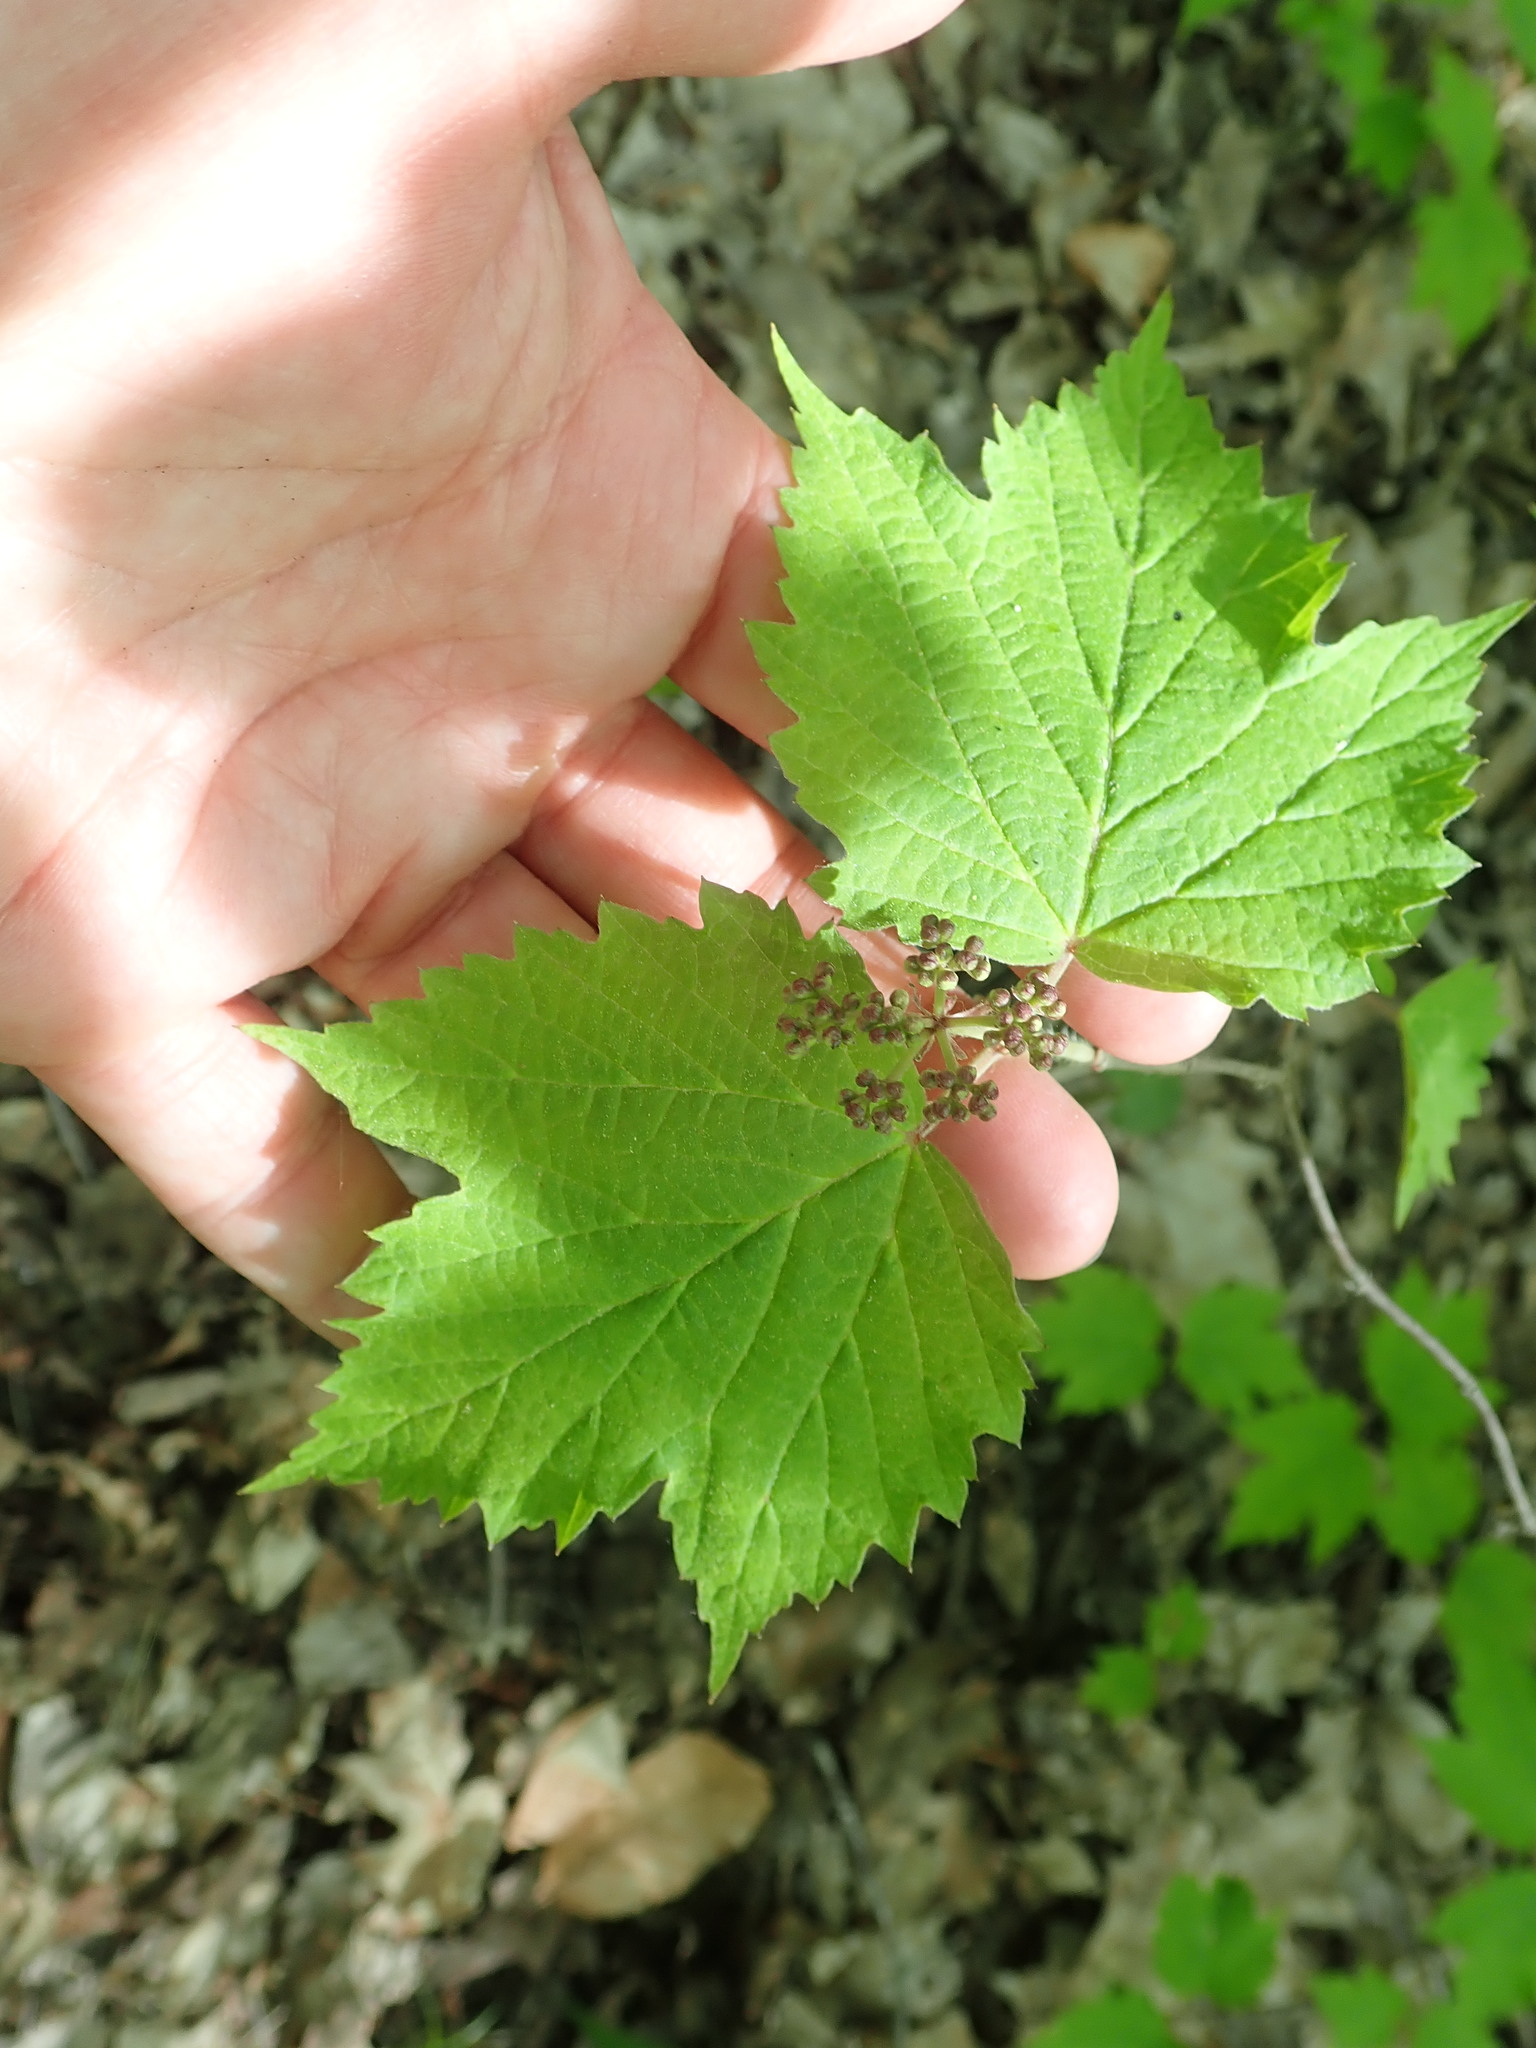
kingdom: Plantae
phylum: Tracheophyta
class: Magnoliopsida
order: Dipsacales
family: Viburnaceae
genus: Viburnum
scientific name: Viburnum acerifolium
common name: Dockmackie
